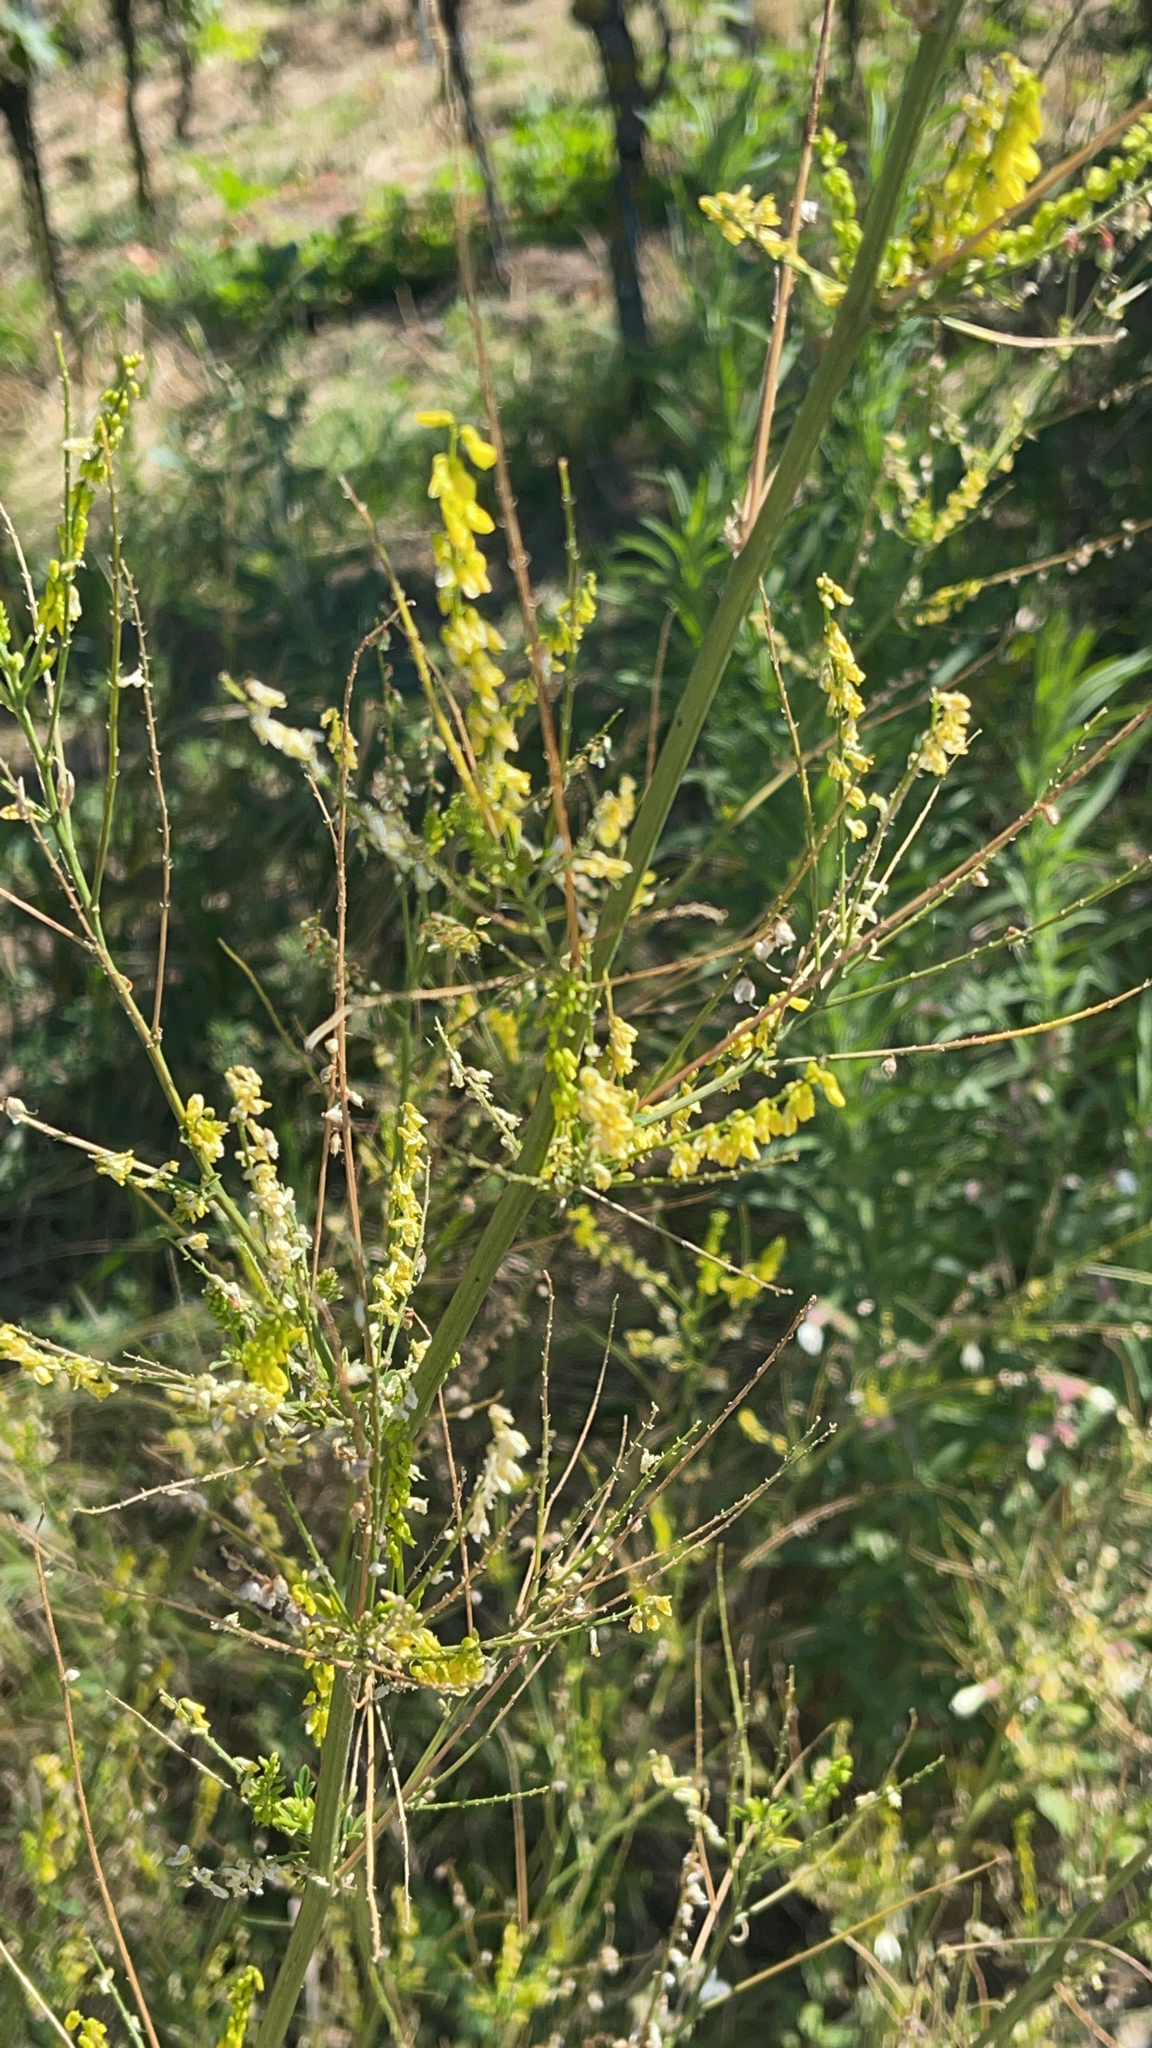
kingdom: Plantae
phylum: Tracheophyta
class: Magnoliopsida
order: Fabales
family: Fabaceae
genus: Melilotus
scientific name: Melilotus officinalis
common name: Sweetclover
